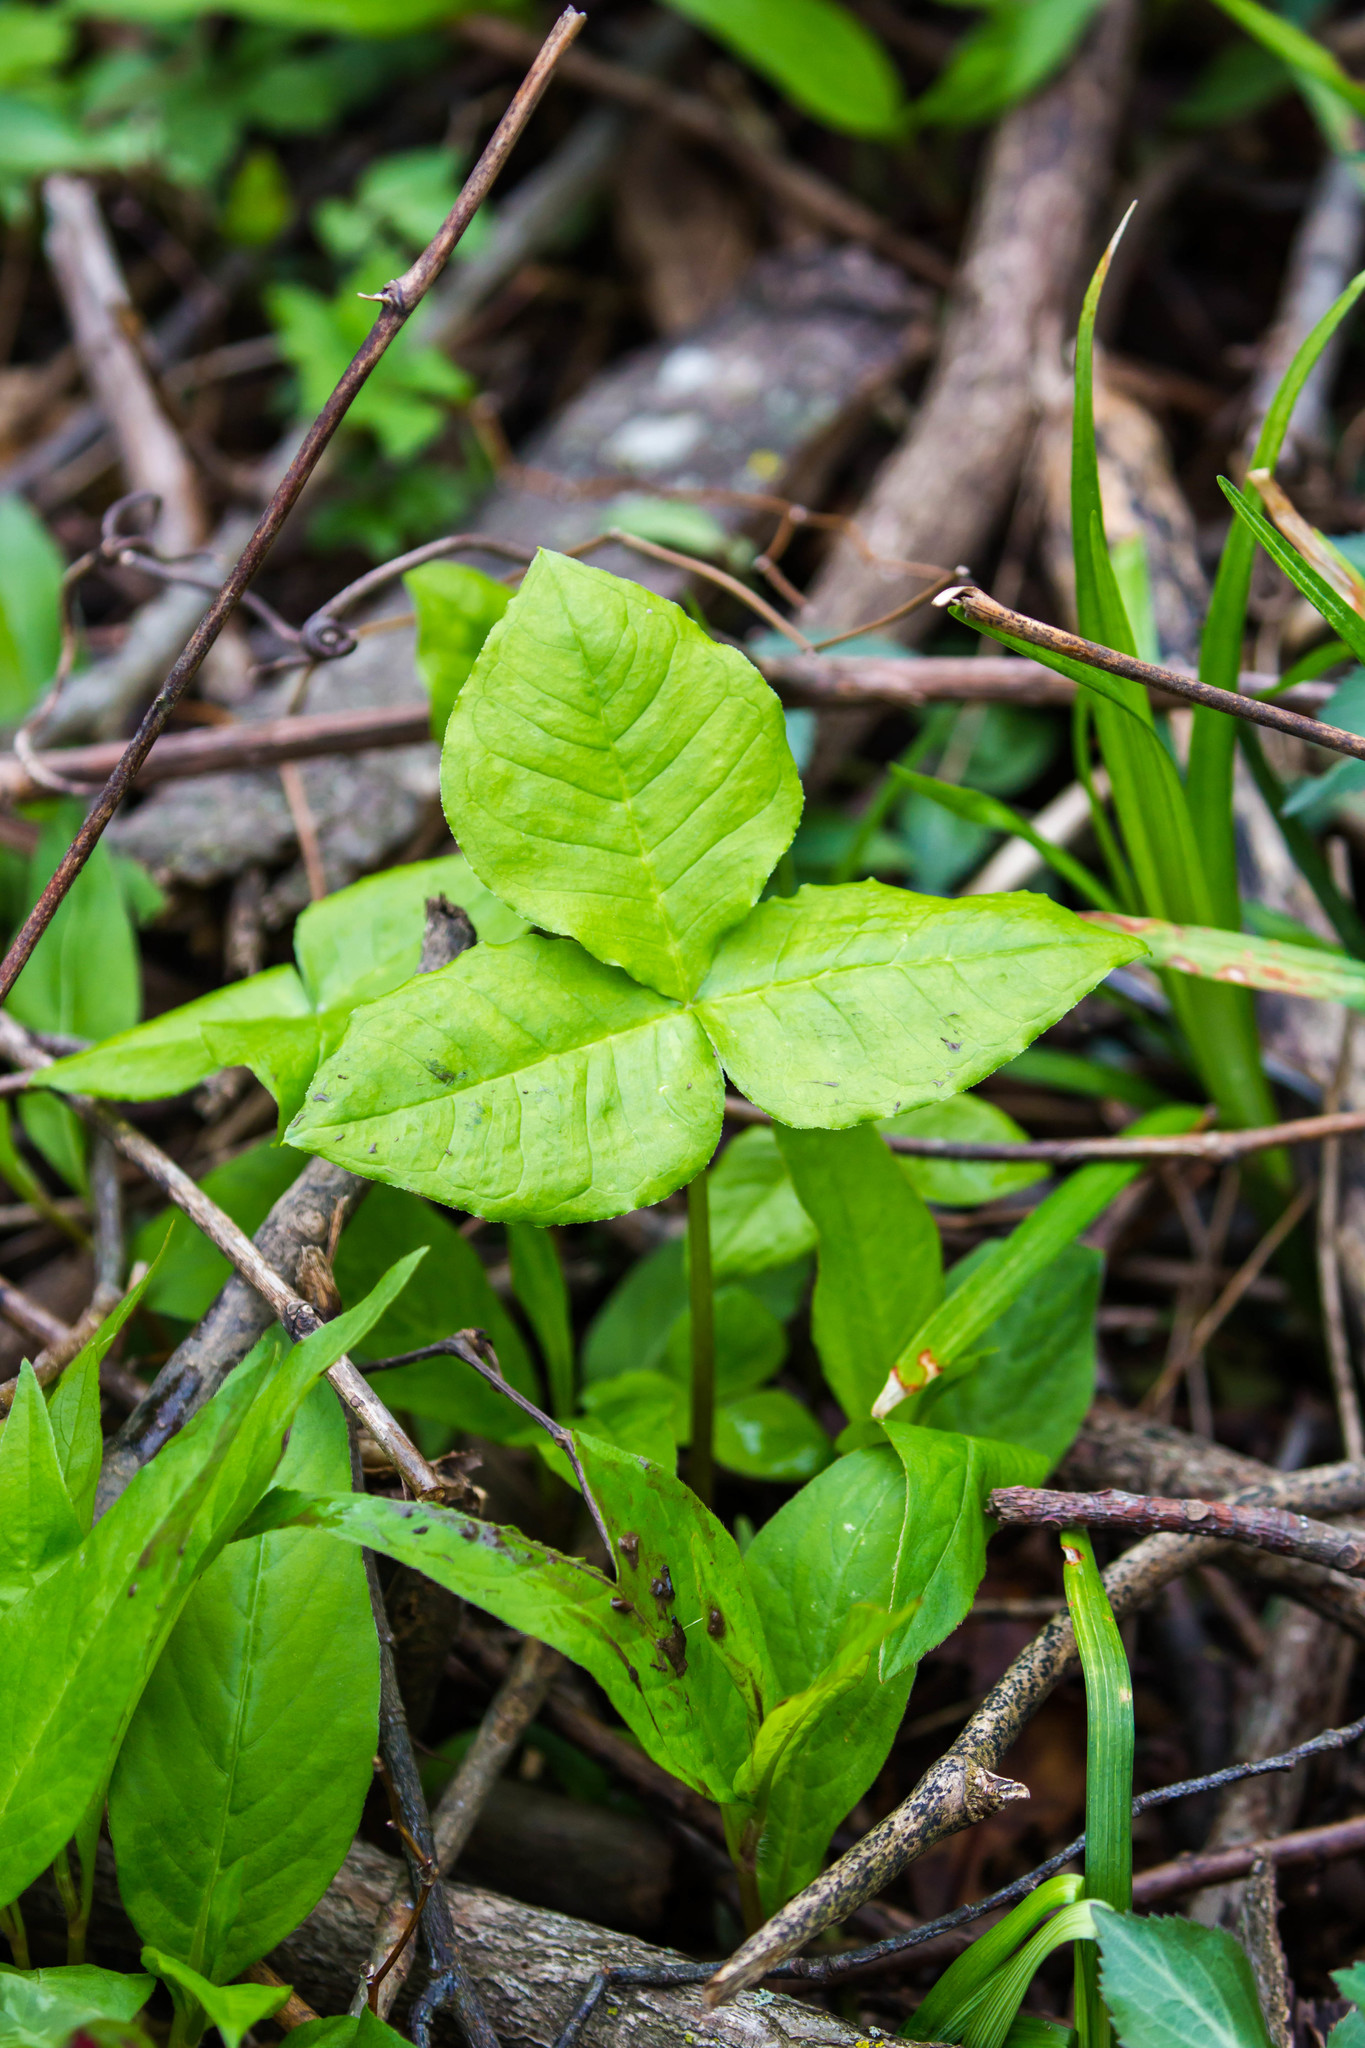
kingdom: Plantae
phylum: Tracheophyta
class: Liliopsida
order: Alismatales
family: Araceae
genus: Arisaema
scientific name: Arisaema triphyllum
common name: Jack-in-the-pulpit
